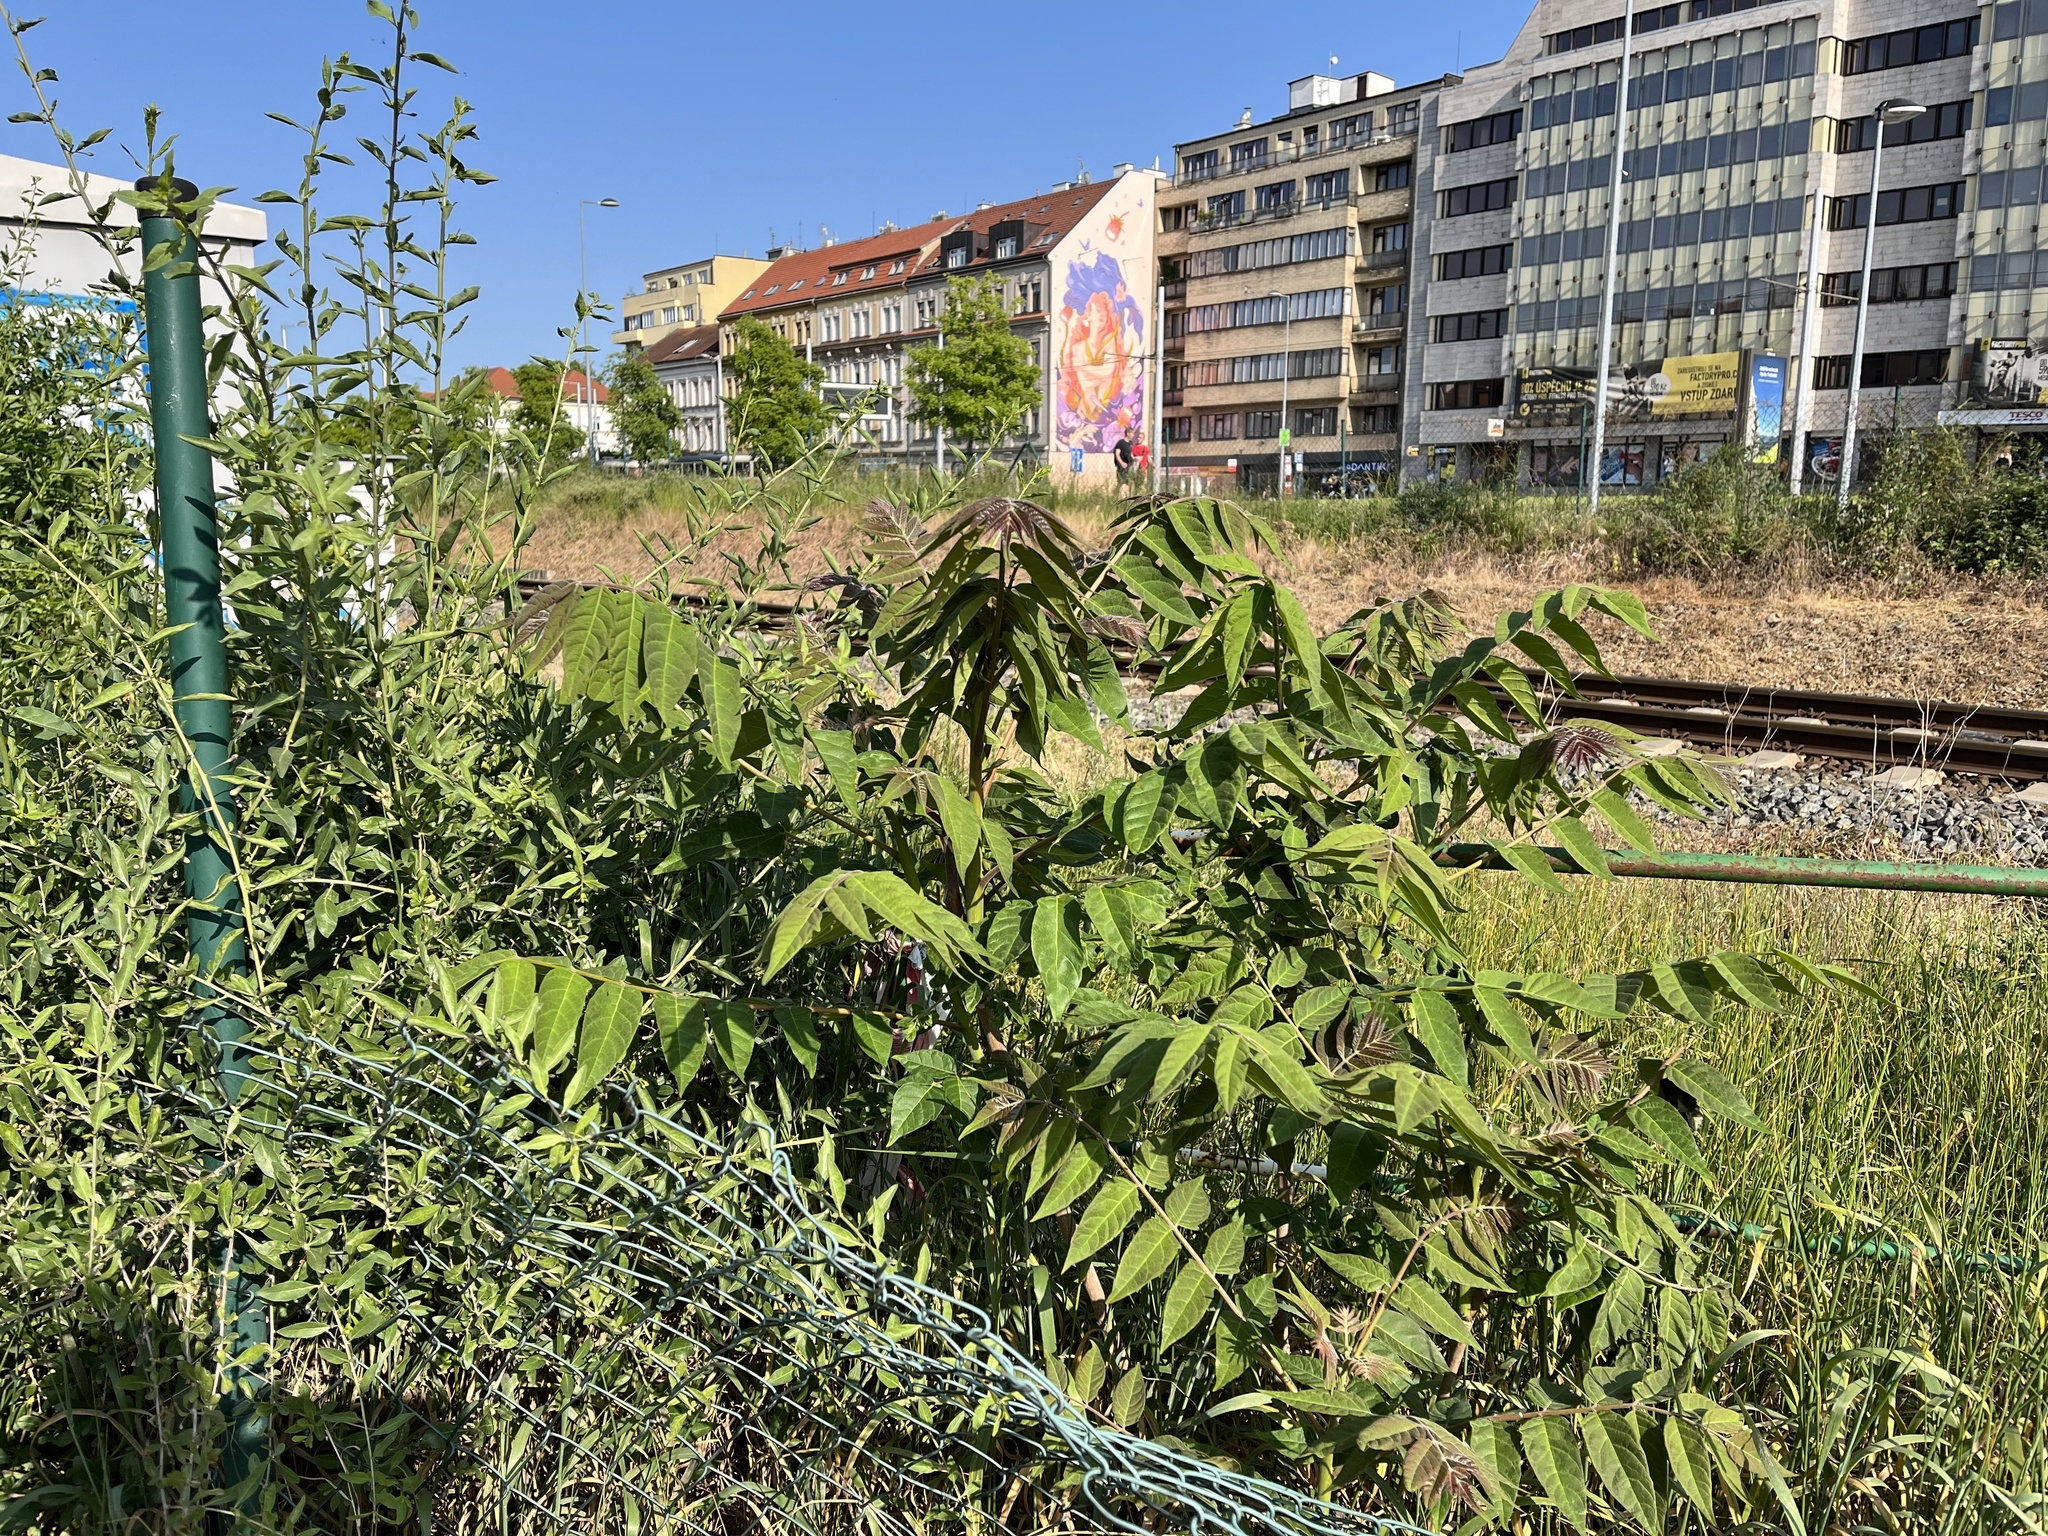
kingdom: Plantae
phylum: Tracheophyta
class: Magnoliopsida
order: Sapindales
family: Simaroubaceae
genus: Ailanthus
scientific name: Ailanthus altissima
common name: Tree-of-heaven
